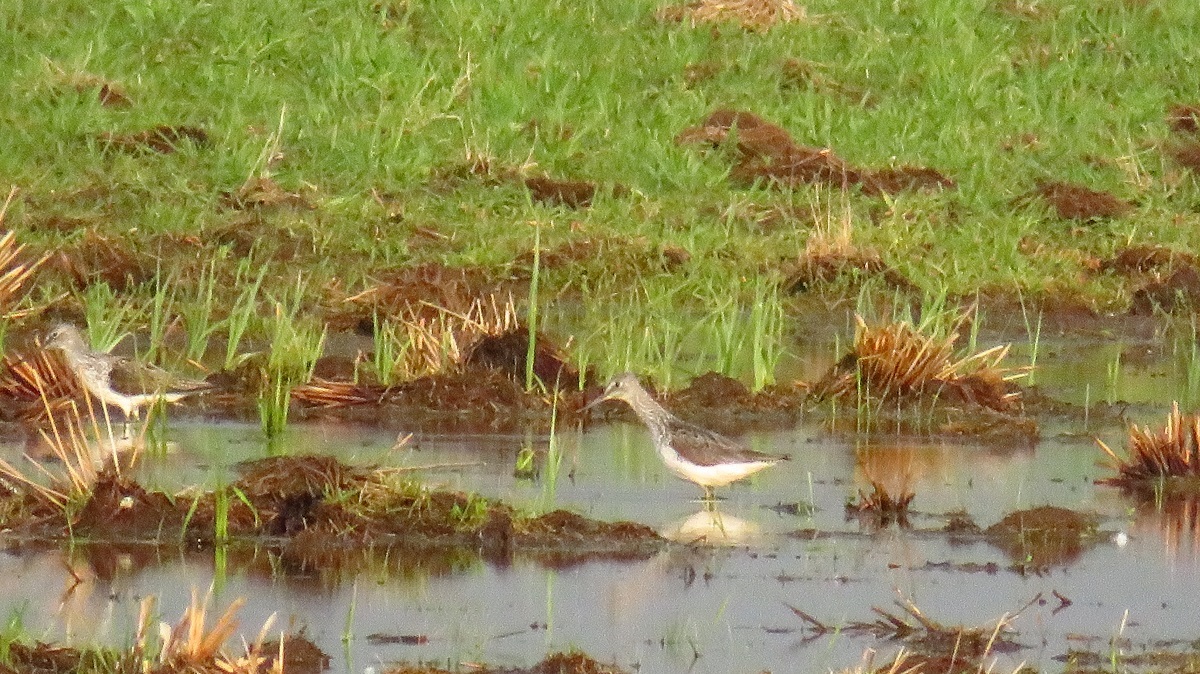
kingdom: Animalia
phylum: Chordata
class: Aves
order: Charadriiformes
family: Scolopacidae
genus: Tringa
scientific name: Tringa nebularia
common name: Common greenshank
